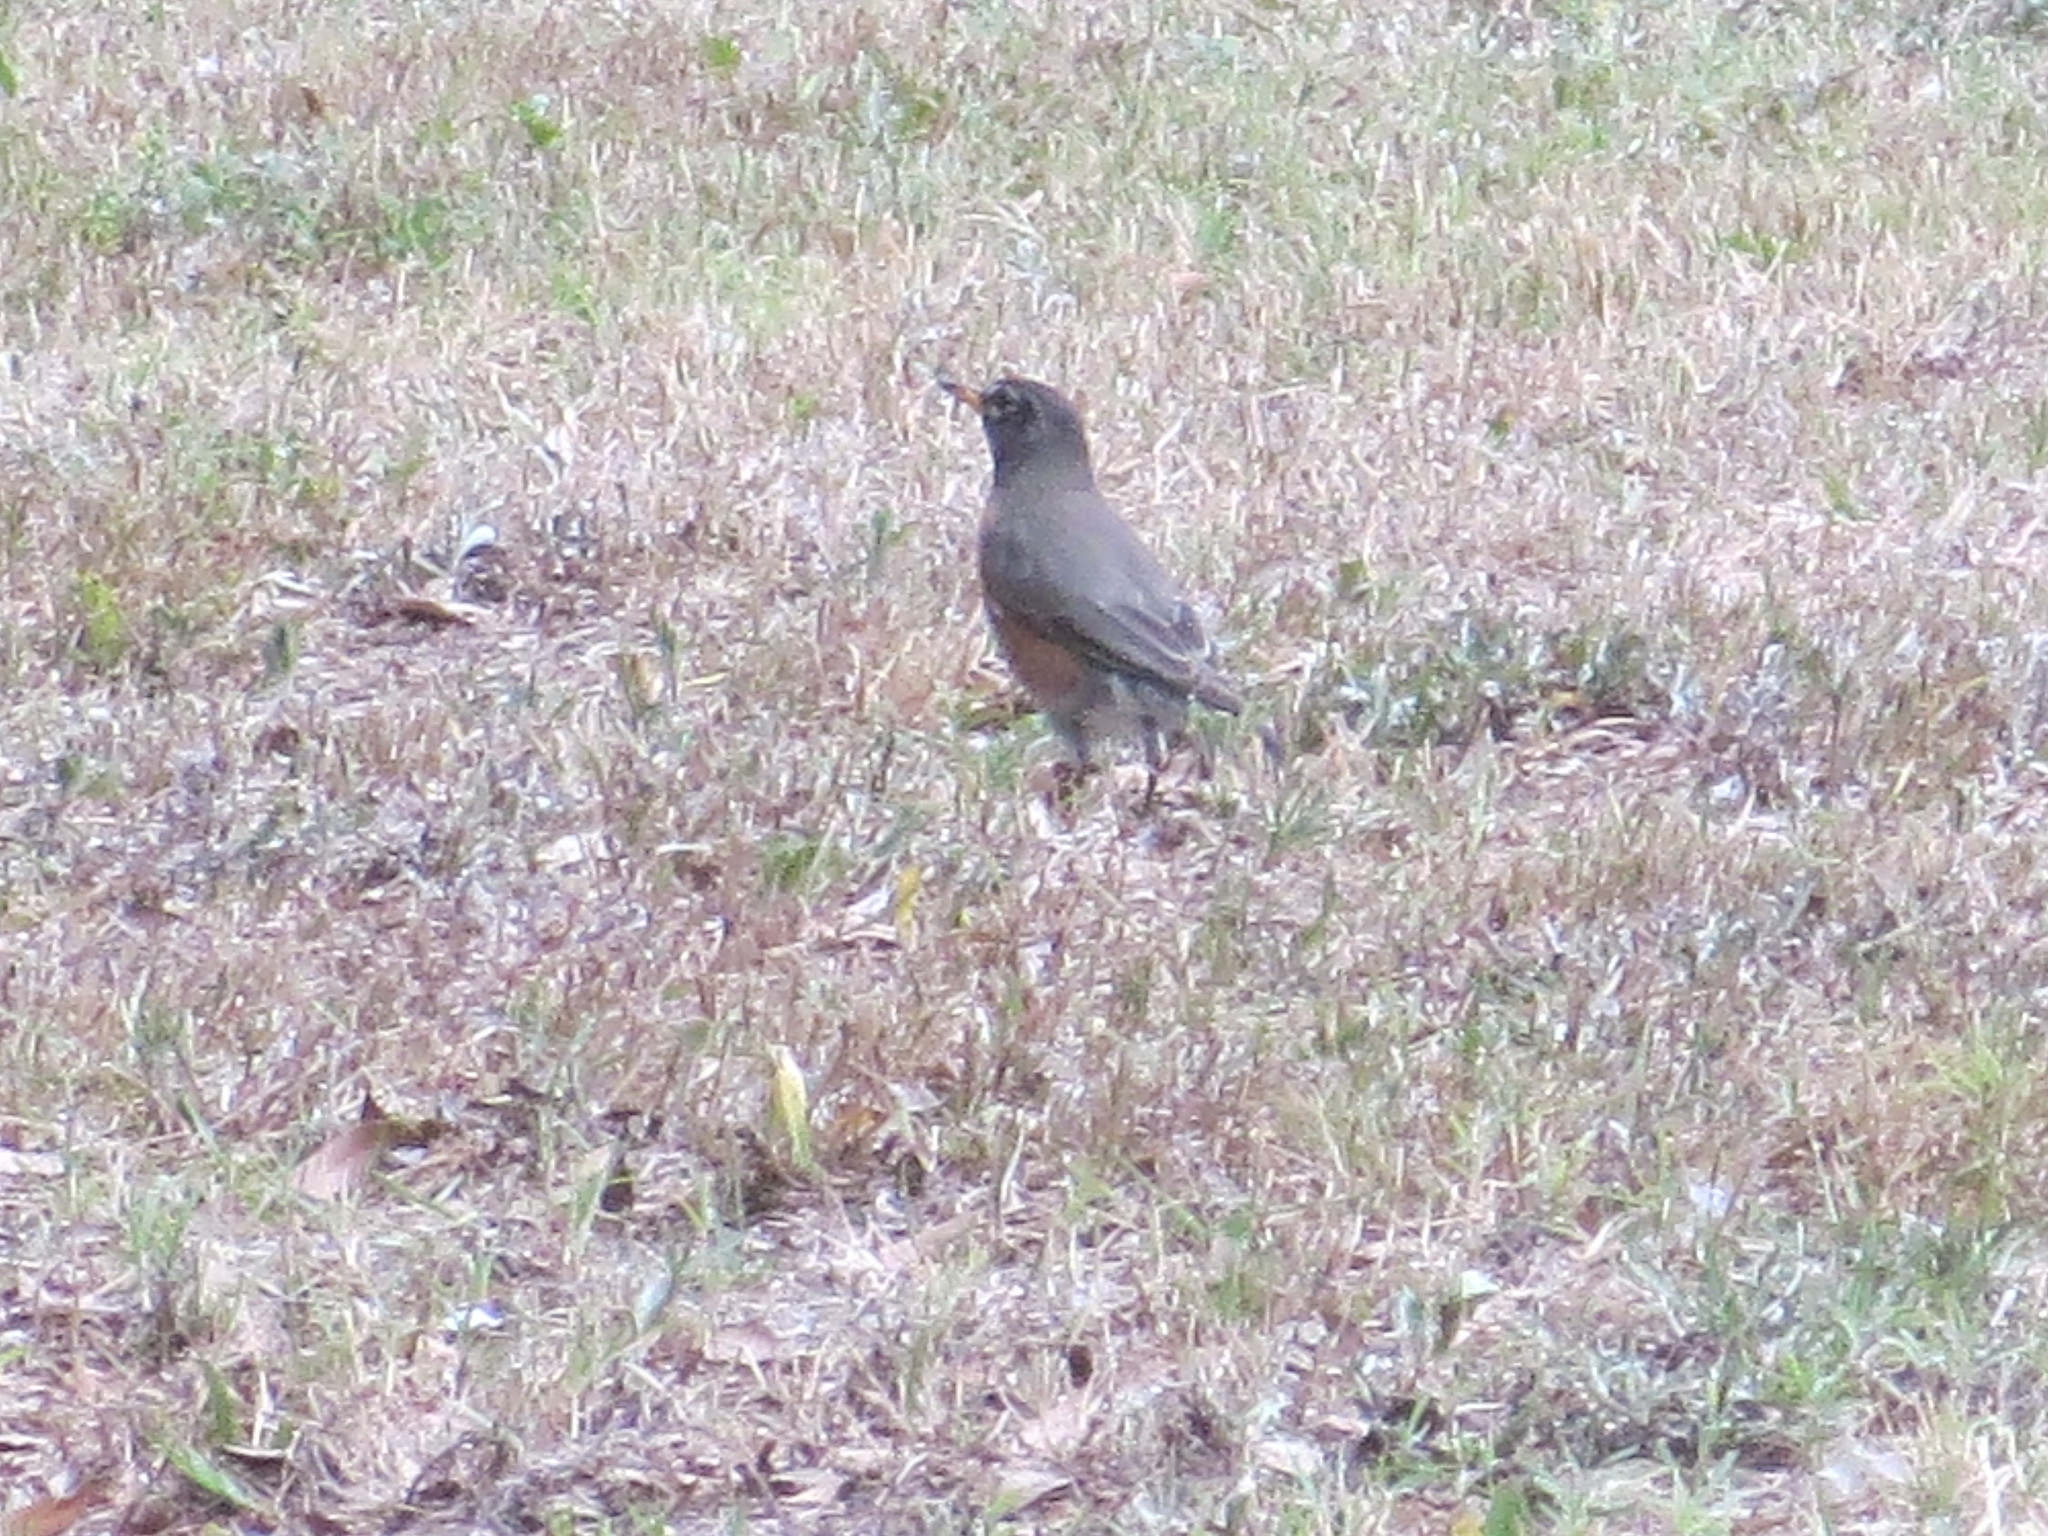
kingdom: Animalia
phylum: Chordata
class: Aves
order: Passeriformes
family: Turdidae
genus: Turdus
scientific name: Turdus migratorius
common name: American robin
